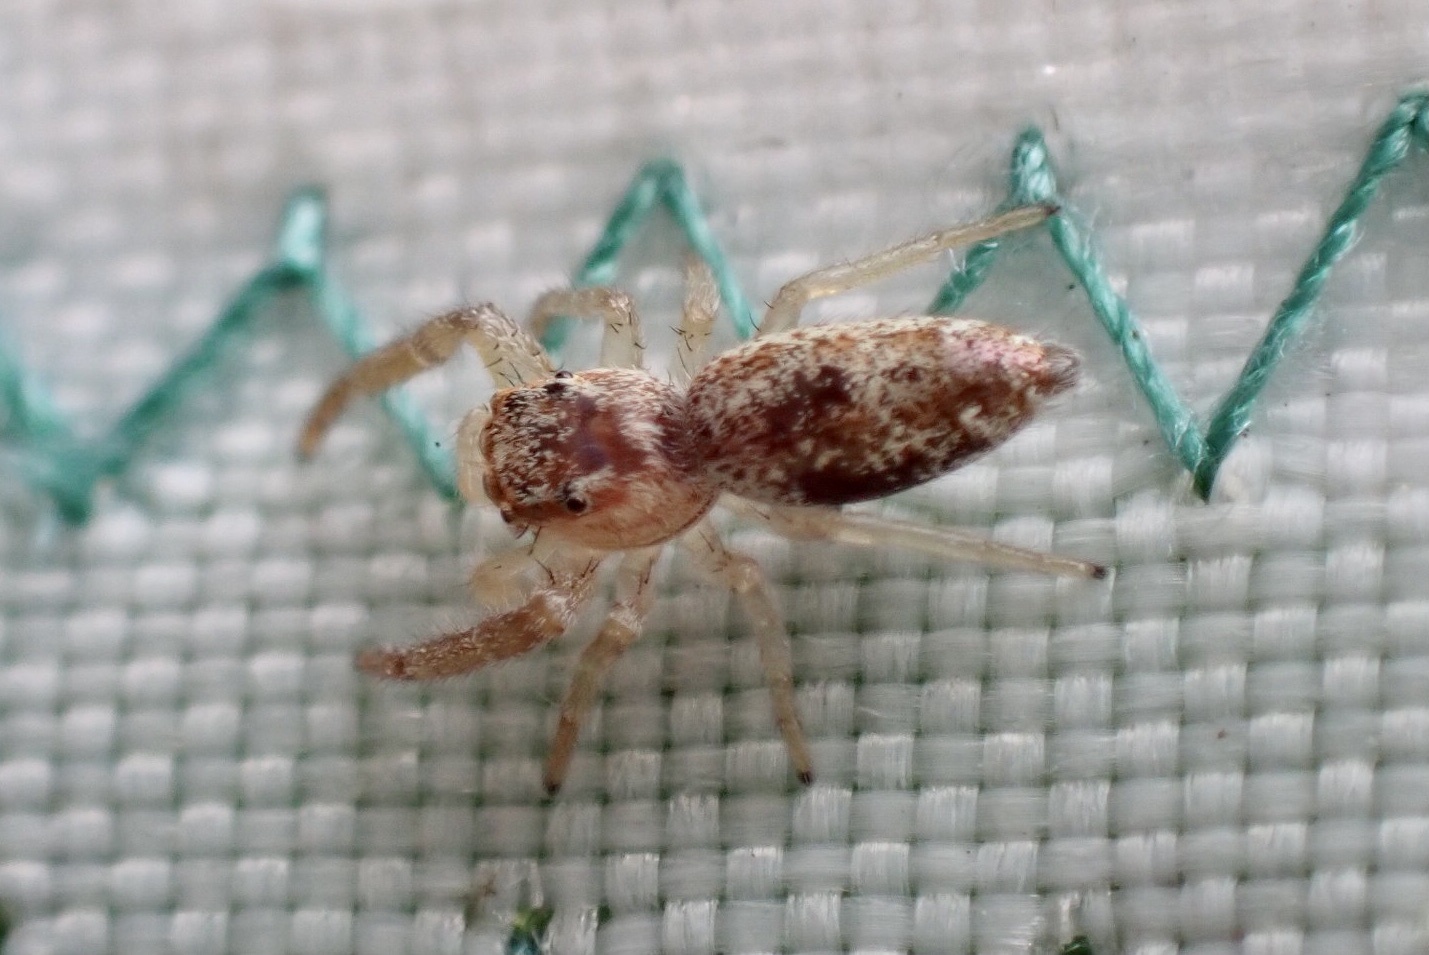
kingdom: Animalia
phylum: Arthropoda
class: Arachnida
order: Araneae
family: Salticidae
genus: Hentzia
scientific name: Hentzia mitrata
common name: White-jawed jumping spider
